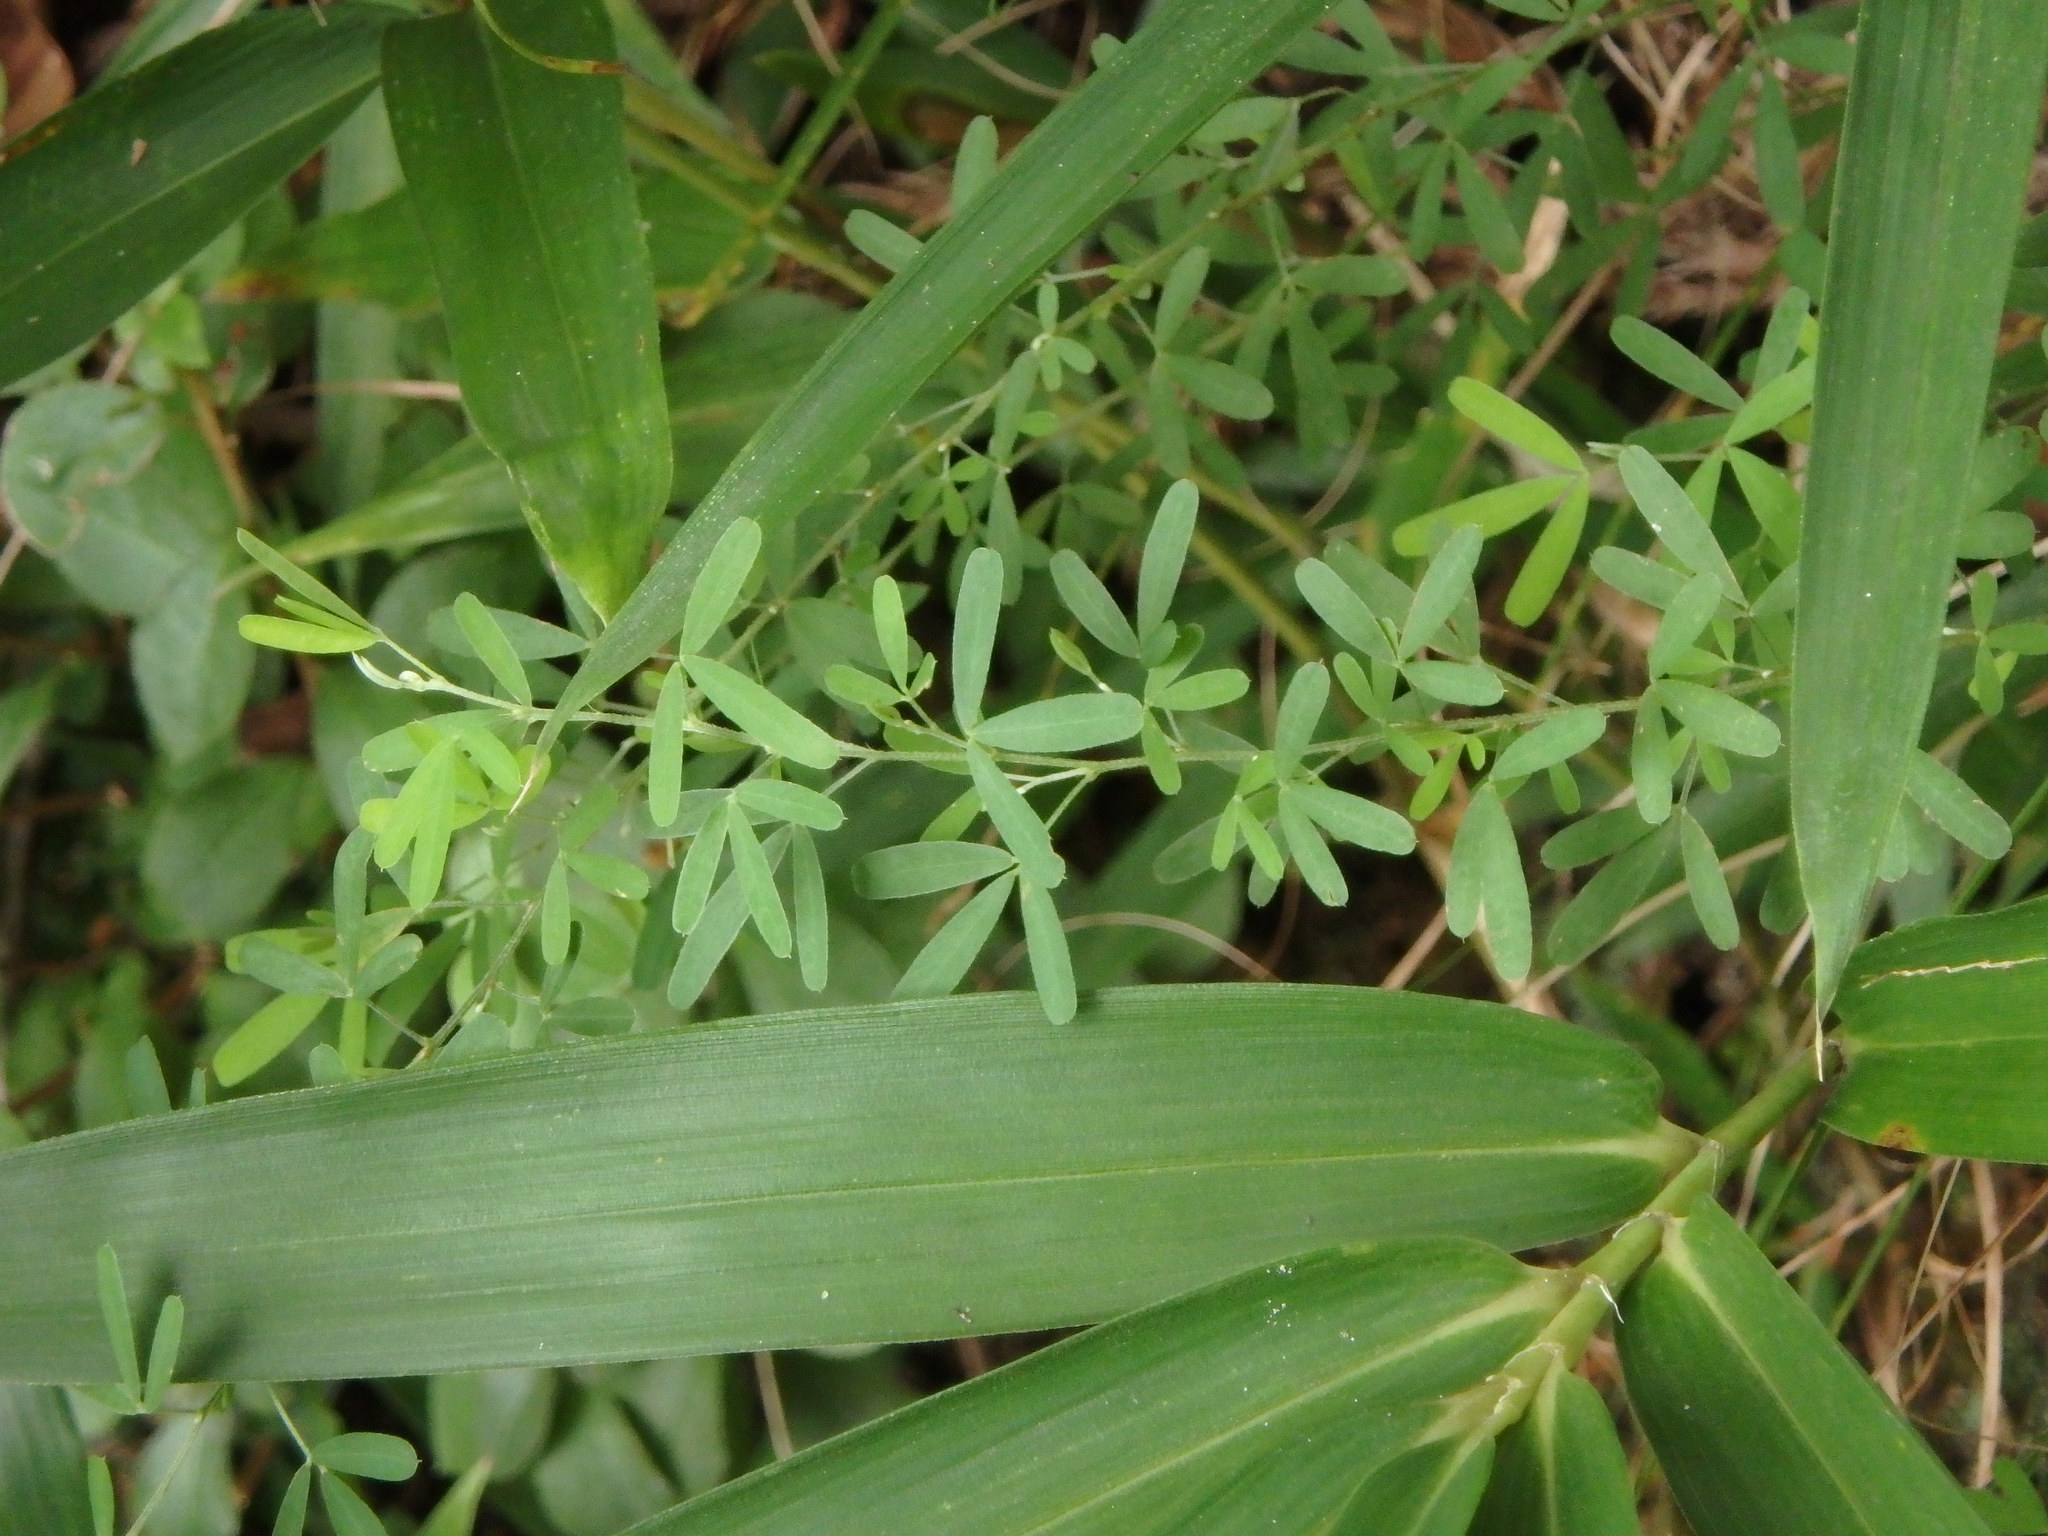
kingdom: Plantae
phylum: Tracheophyta
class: Magnoliopsida
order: Fabales
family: Fabaceae
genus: Lespedeza
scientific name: Lespedeza cuneata
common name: Chinese bush-clover
